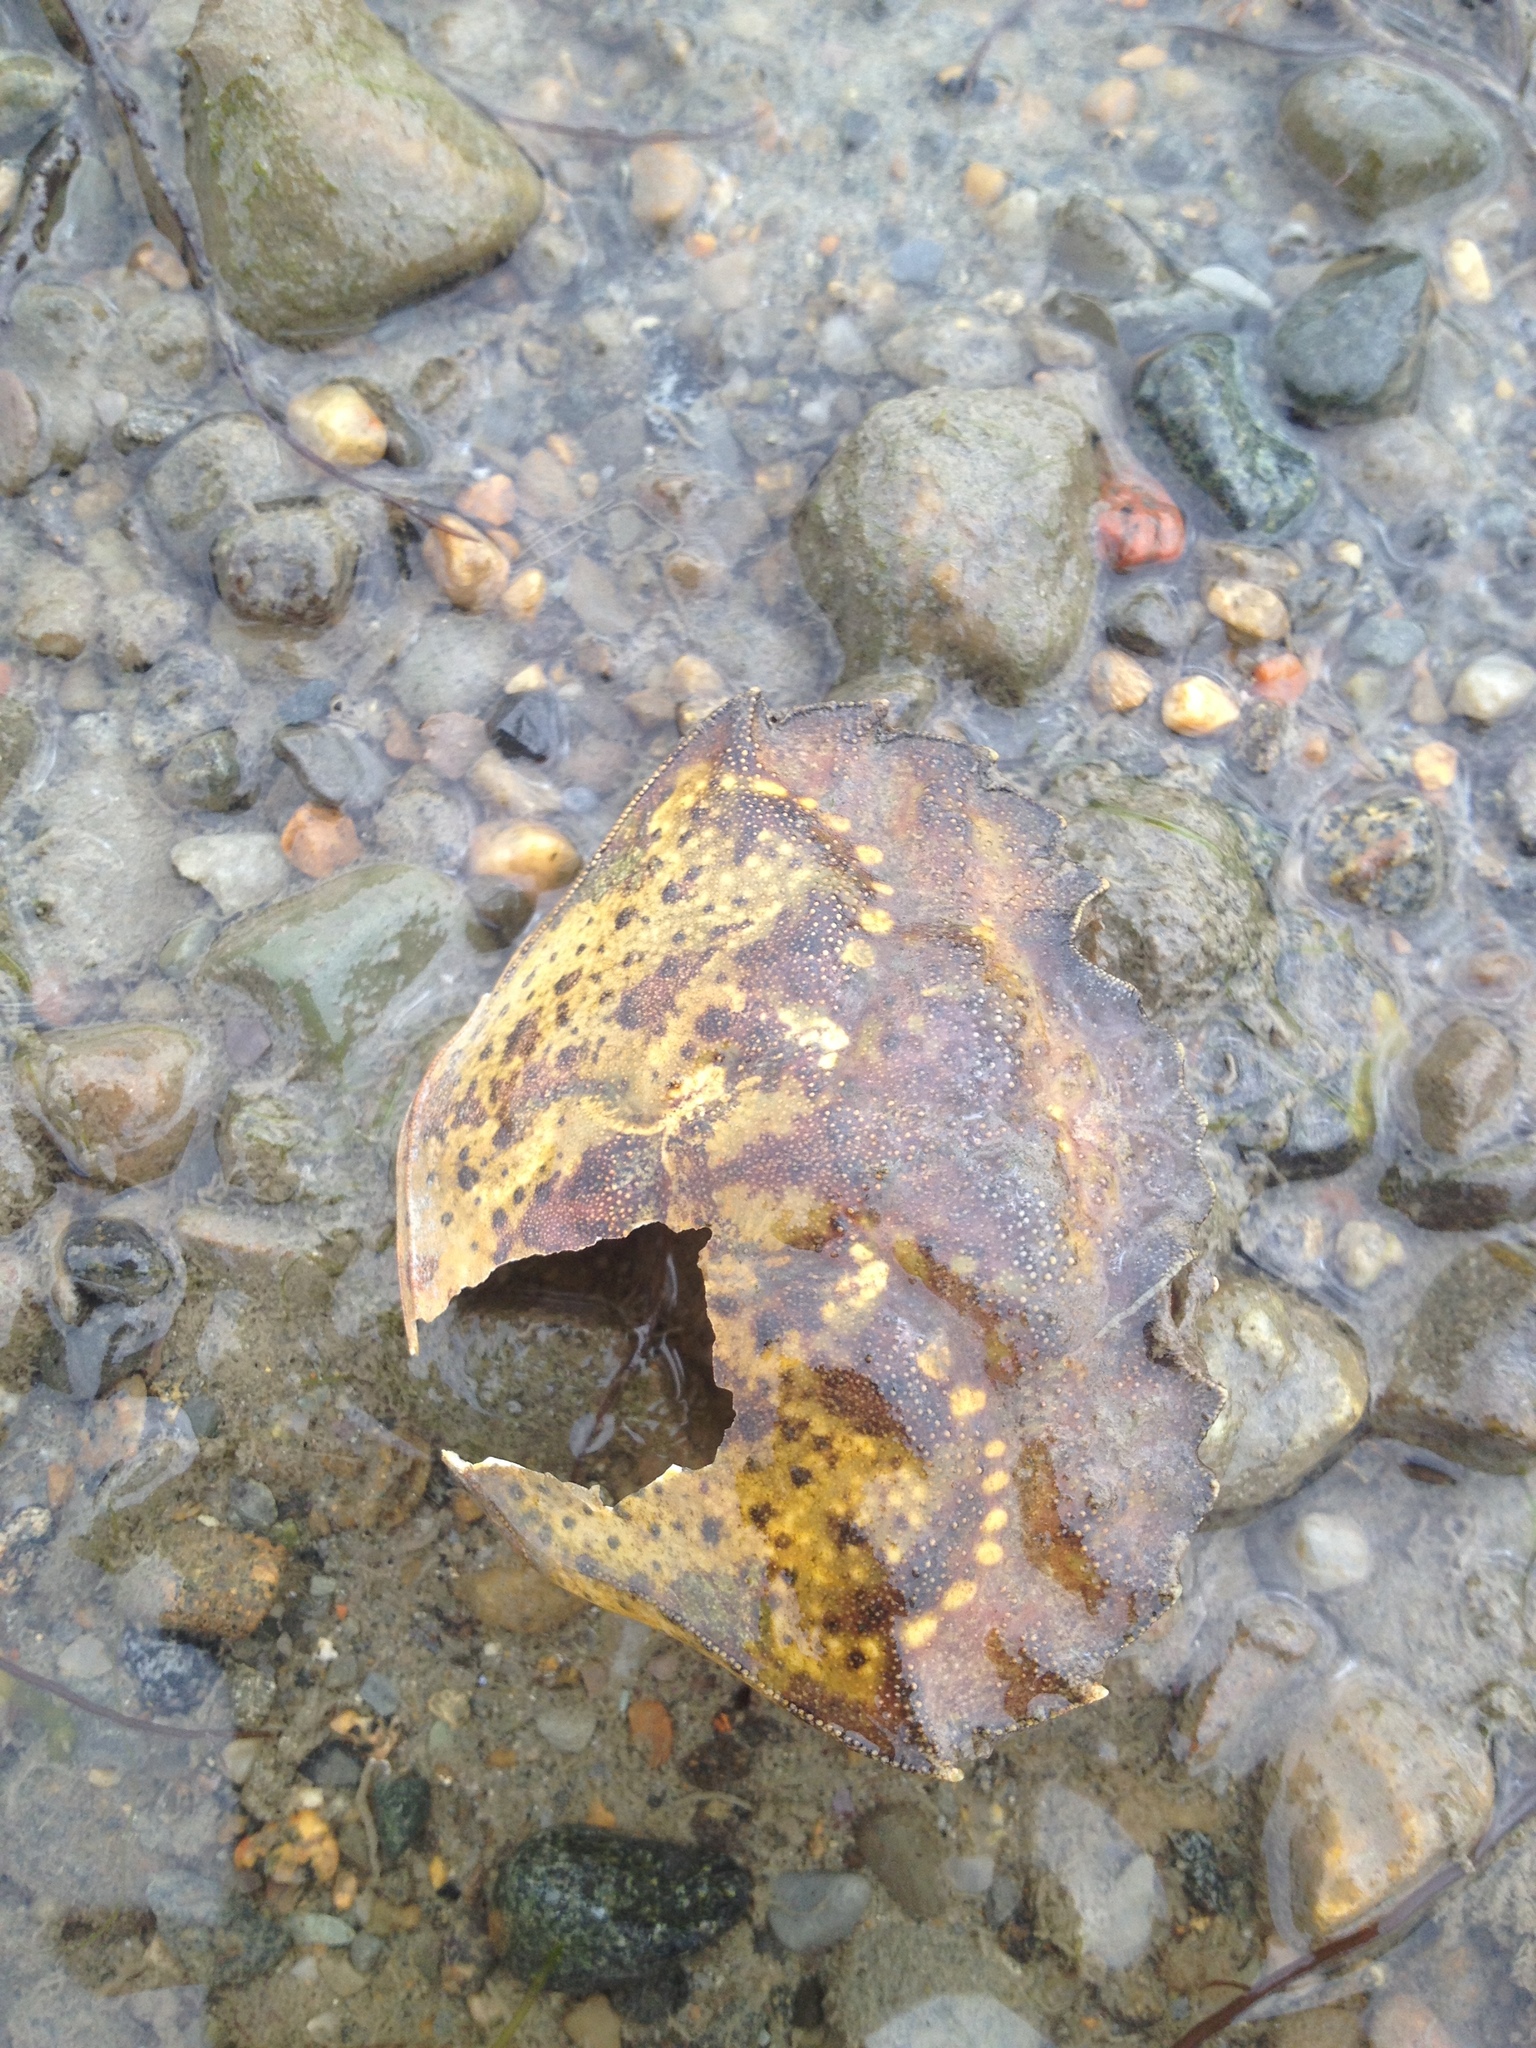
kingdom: Animalia
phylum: Arthropoda
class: Malacostraca
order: Decapoda
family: Carcinidae
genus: Carcinus
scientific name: Carcinus maenas
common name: European green crab
